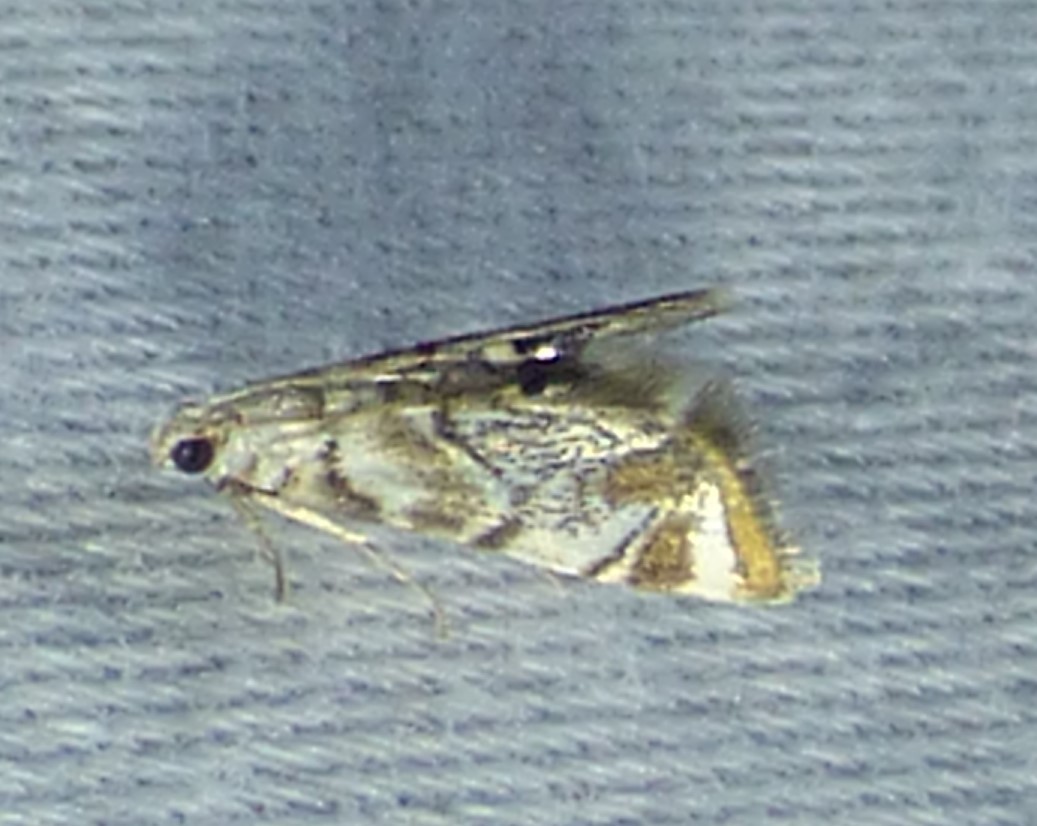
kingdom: Animalia
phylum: Arthropoda
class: Insecta
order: Lepidoptera
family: Crambidae
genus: Eoparargyractis
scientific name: Eoparargyractis irroratalis
